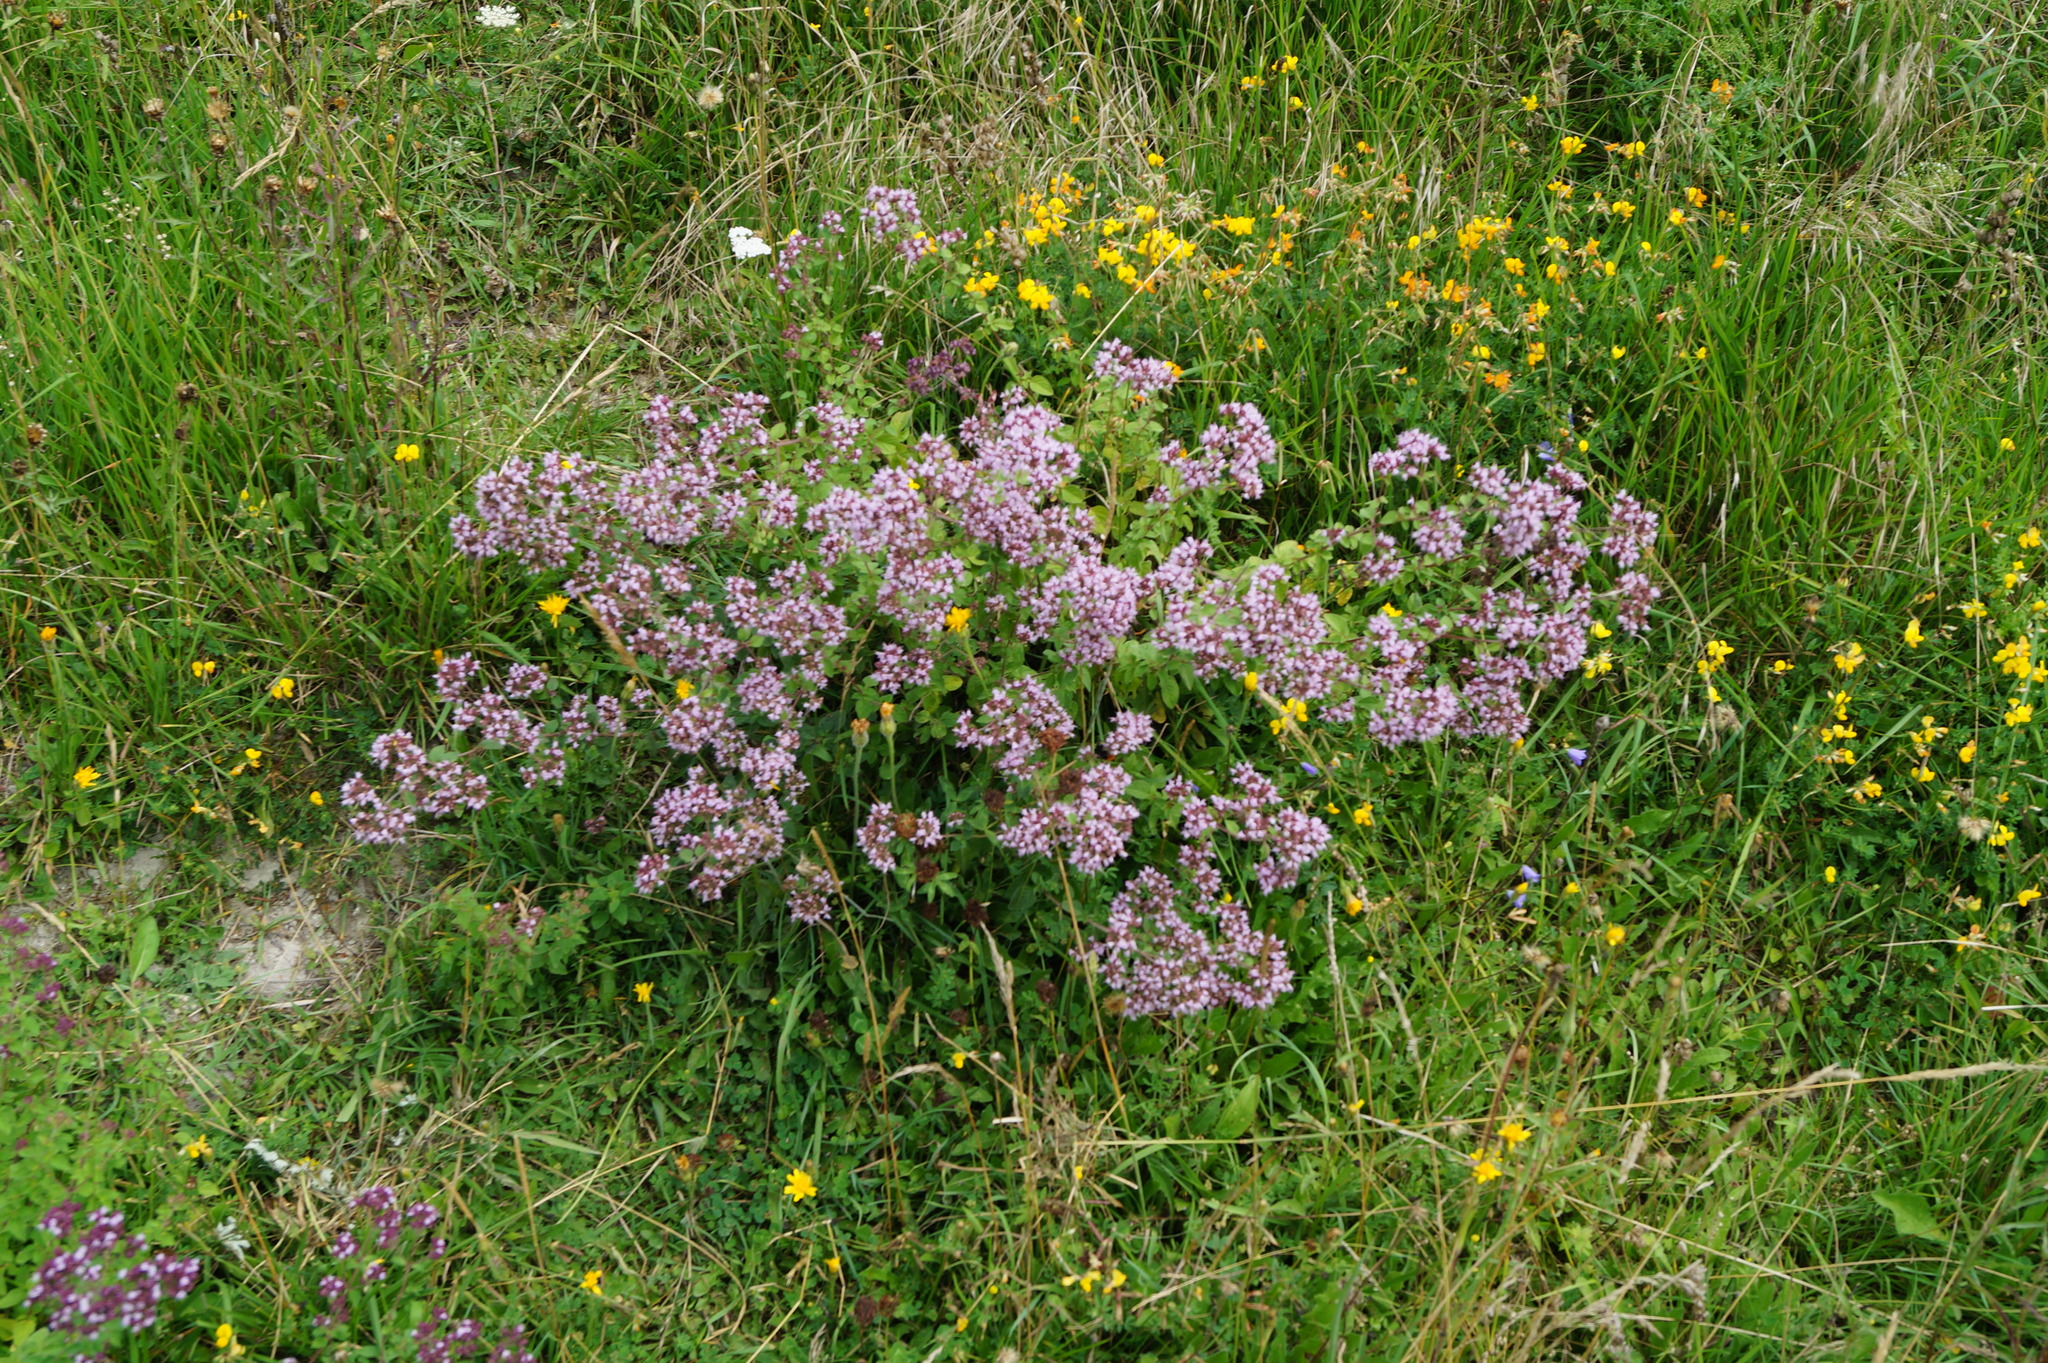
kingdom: Plantae
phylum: Tracheophyta
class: Magnoliopsida
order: Lamiales
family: Lamiaceae
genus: Origanum
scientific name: Origanum vulgare
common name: Wild marjoram
